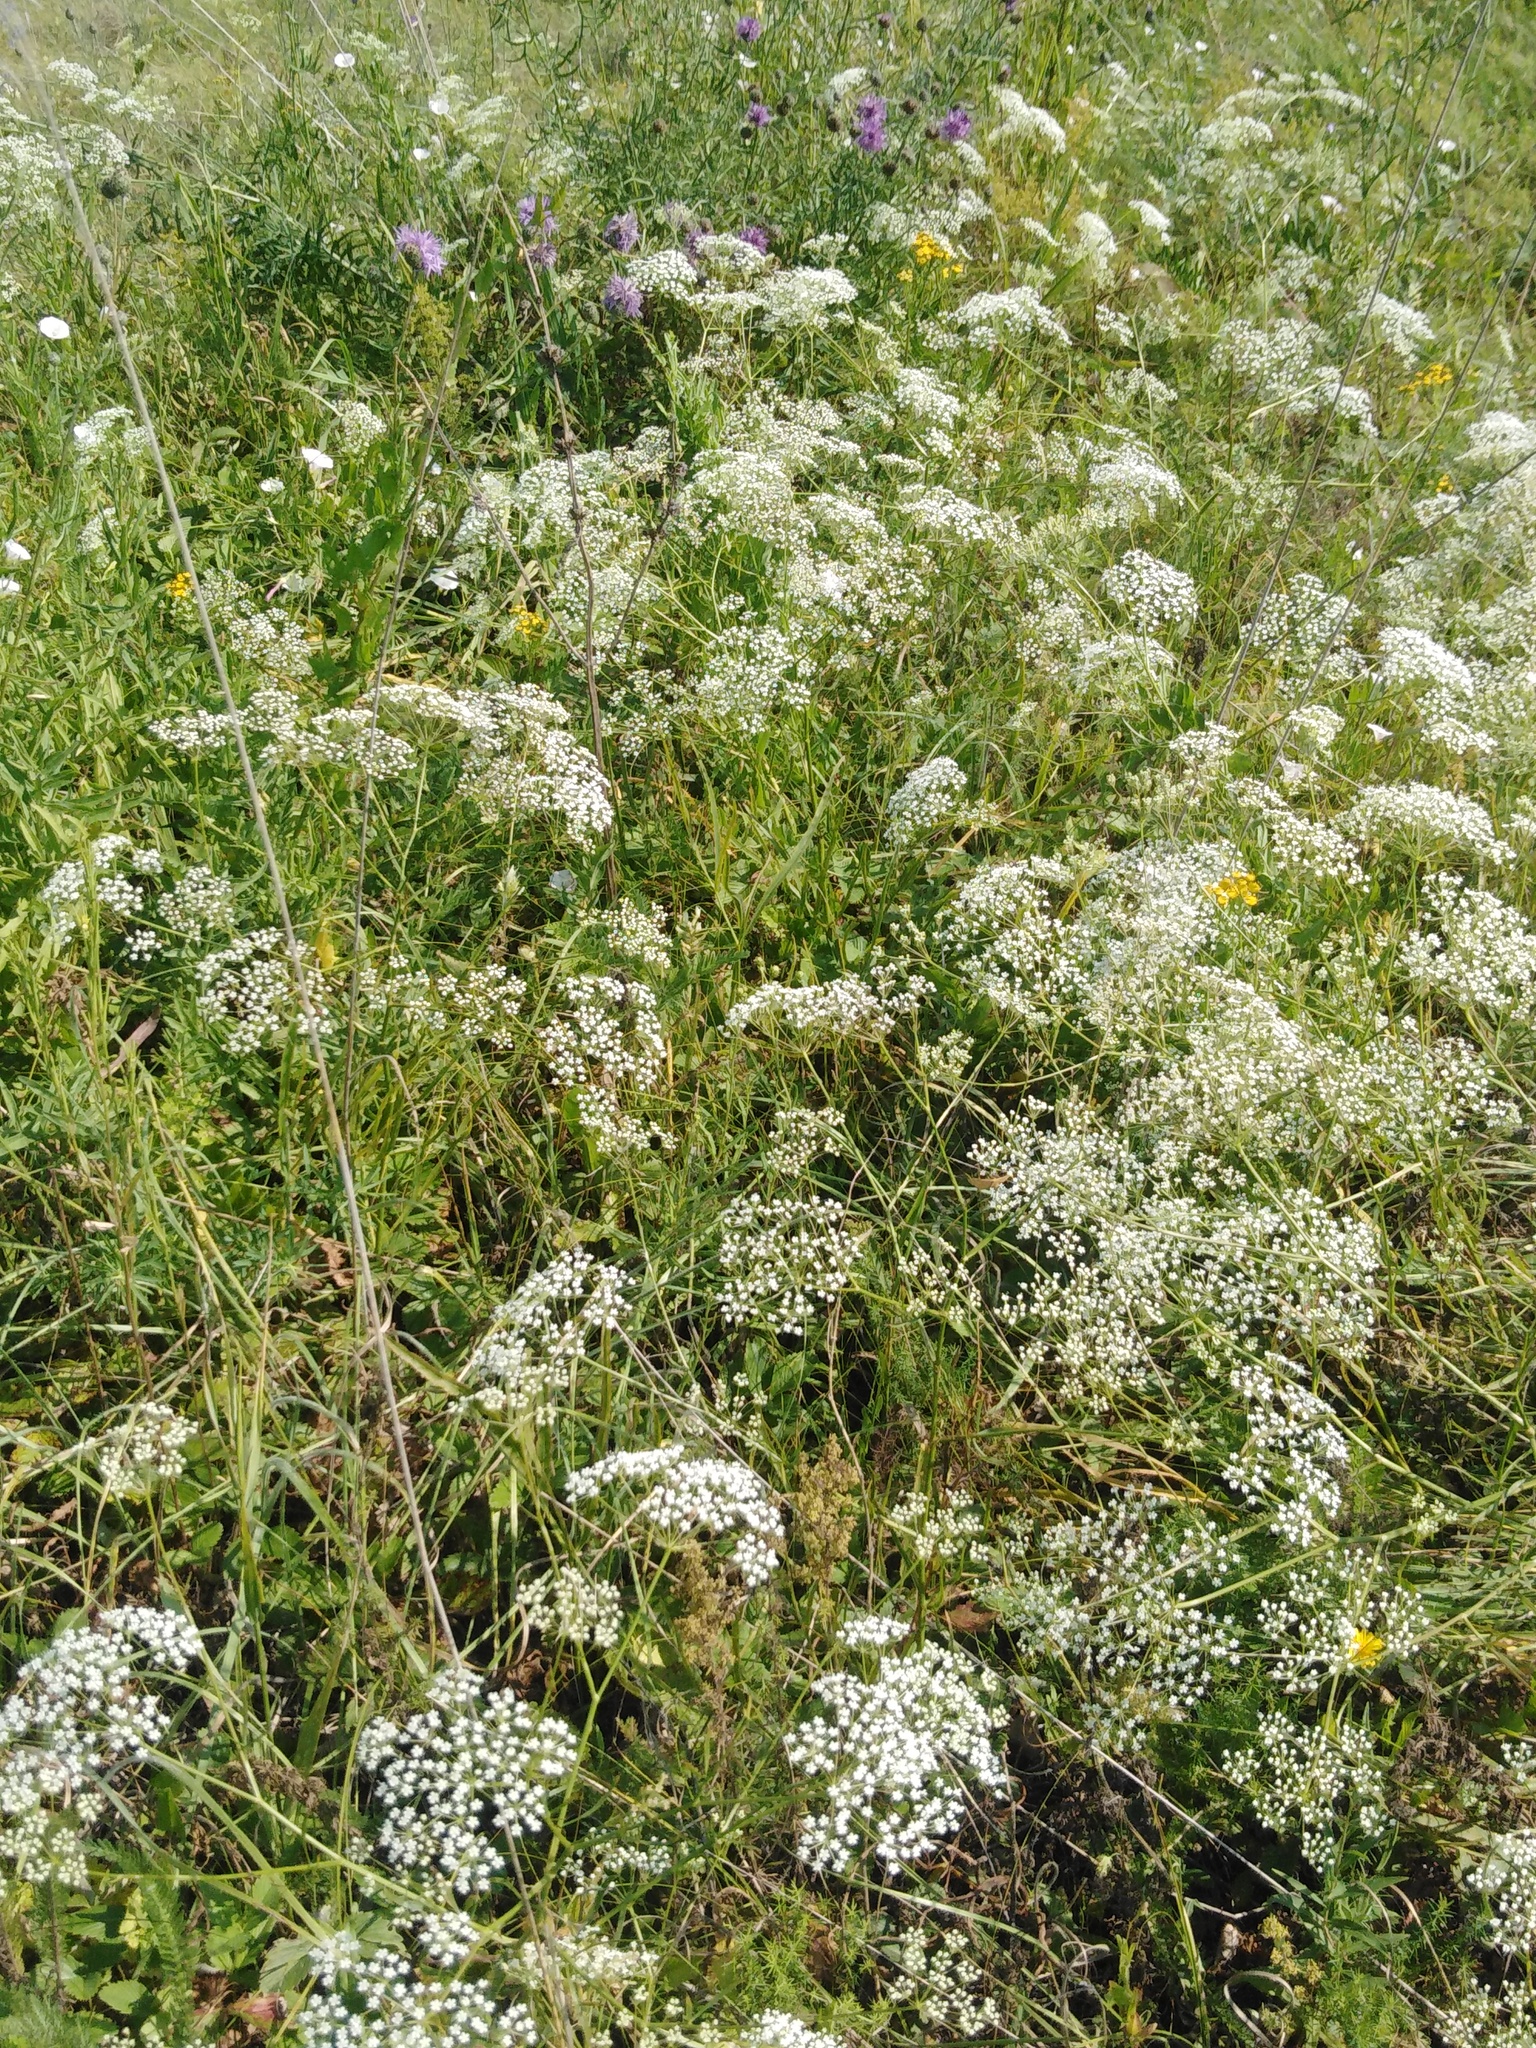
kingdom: Plantae
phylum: Tracheophyta
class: Magnoliopsida
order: Apiales
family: Apiaceae
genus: Falcaria
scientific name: Falcaria vulgaris
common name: Longleaf
